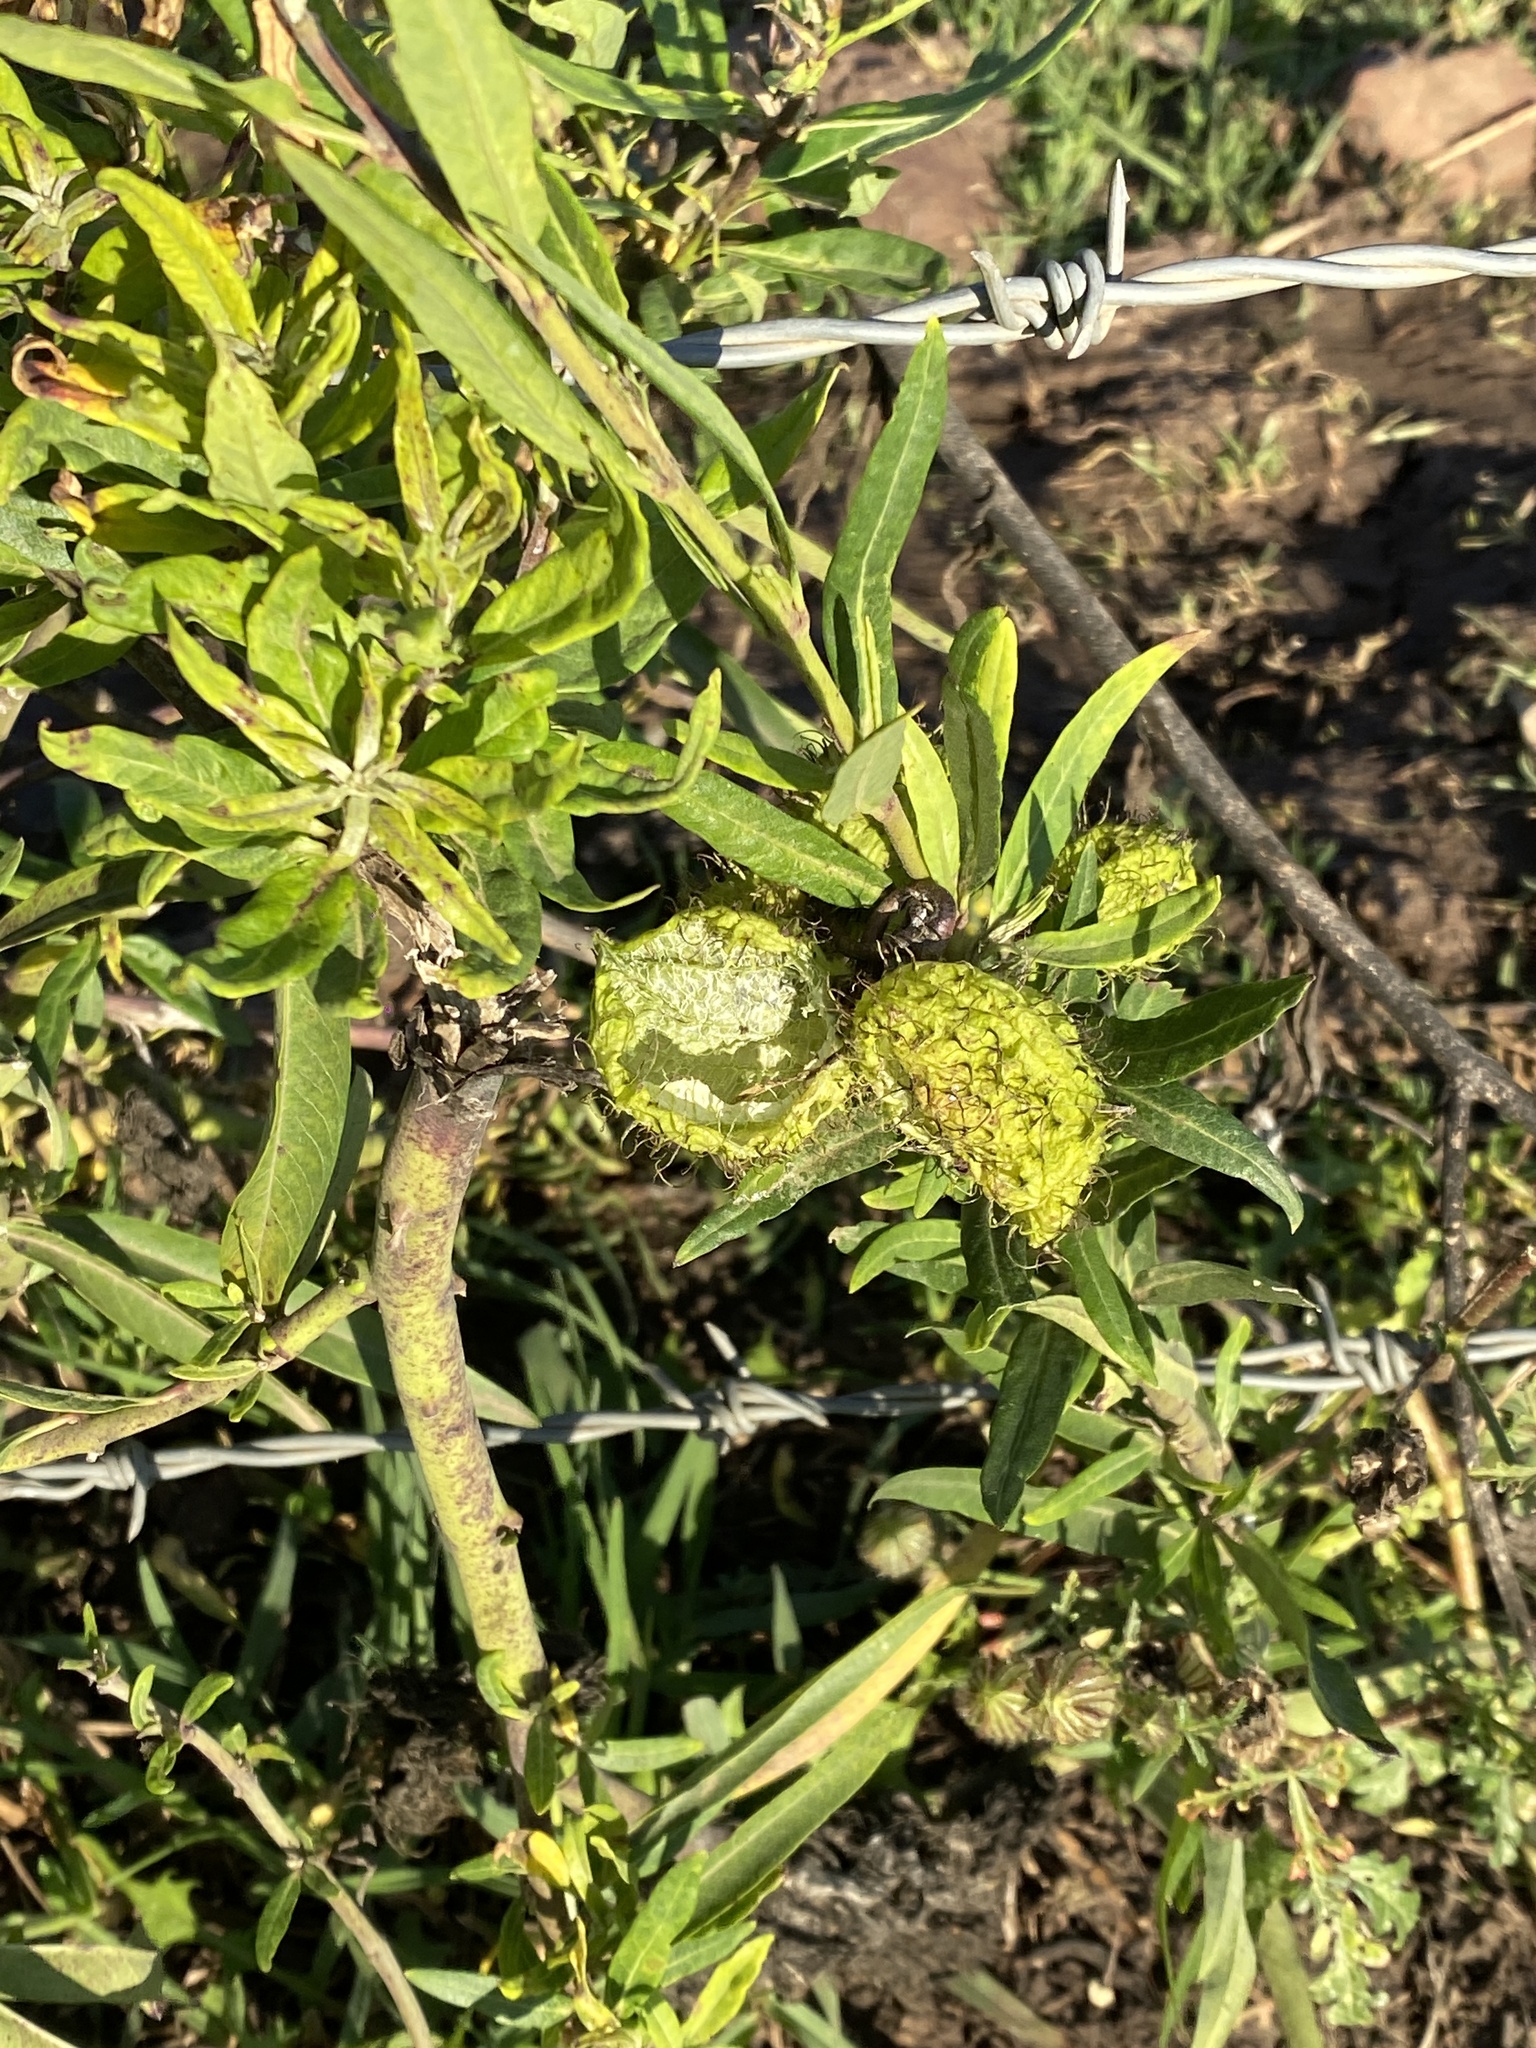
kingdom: Plantae
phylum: Tracheophyta
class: Magnoliopsida
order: Gentianales
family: Apocynaceae
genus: Gomphocarpus
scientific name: Gomphocarpus physocarpus
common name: Balloon cotton bush
